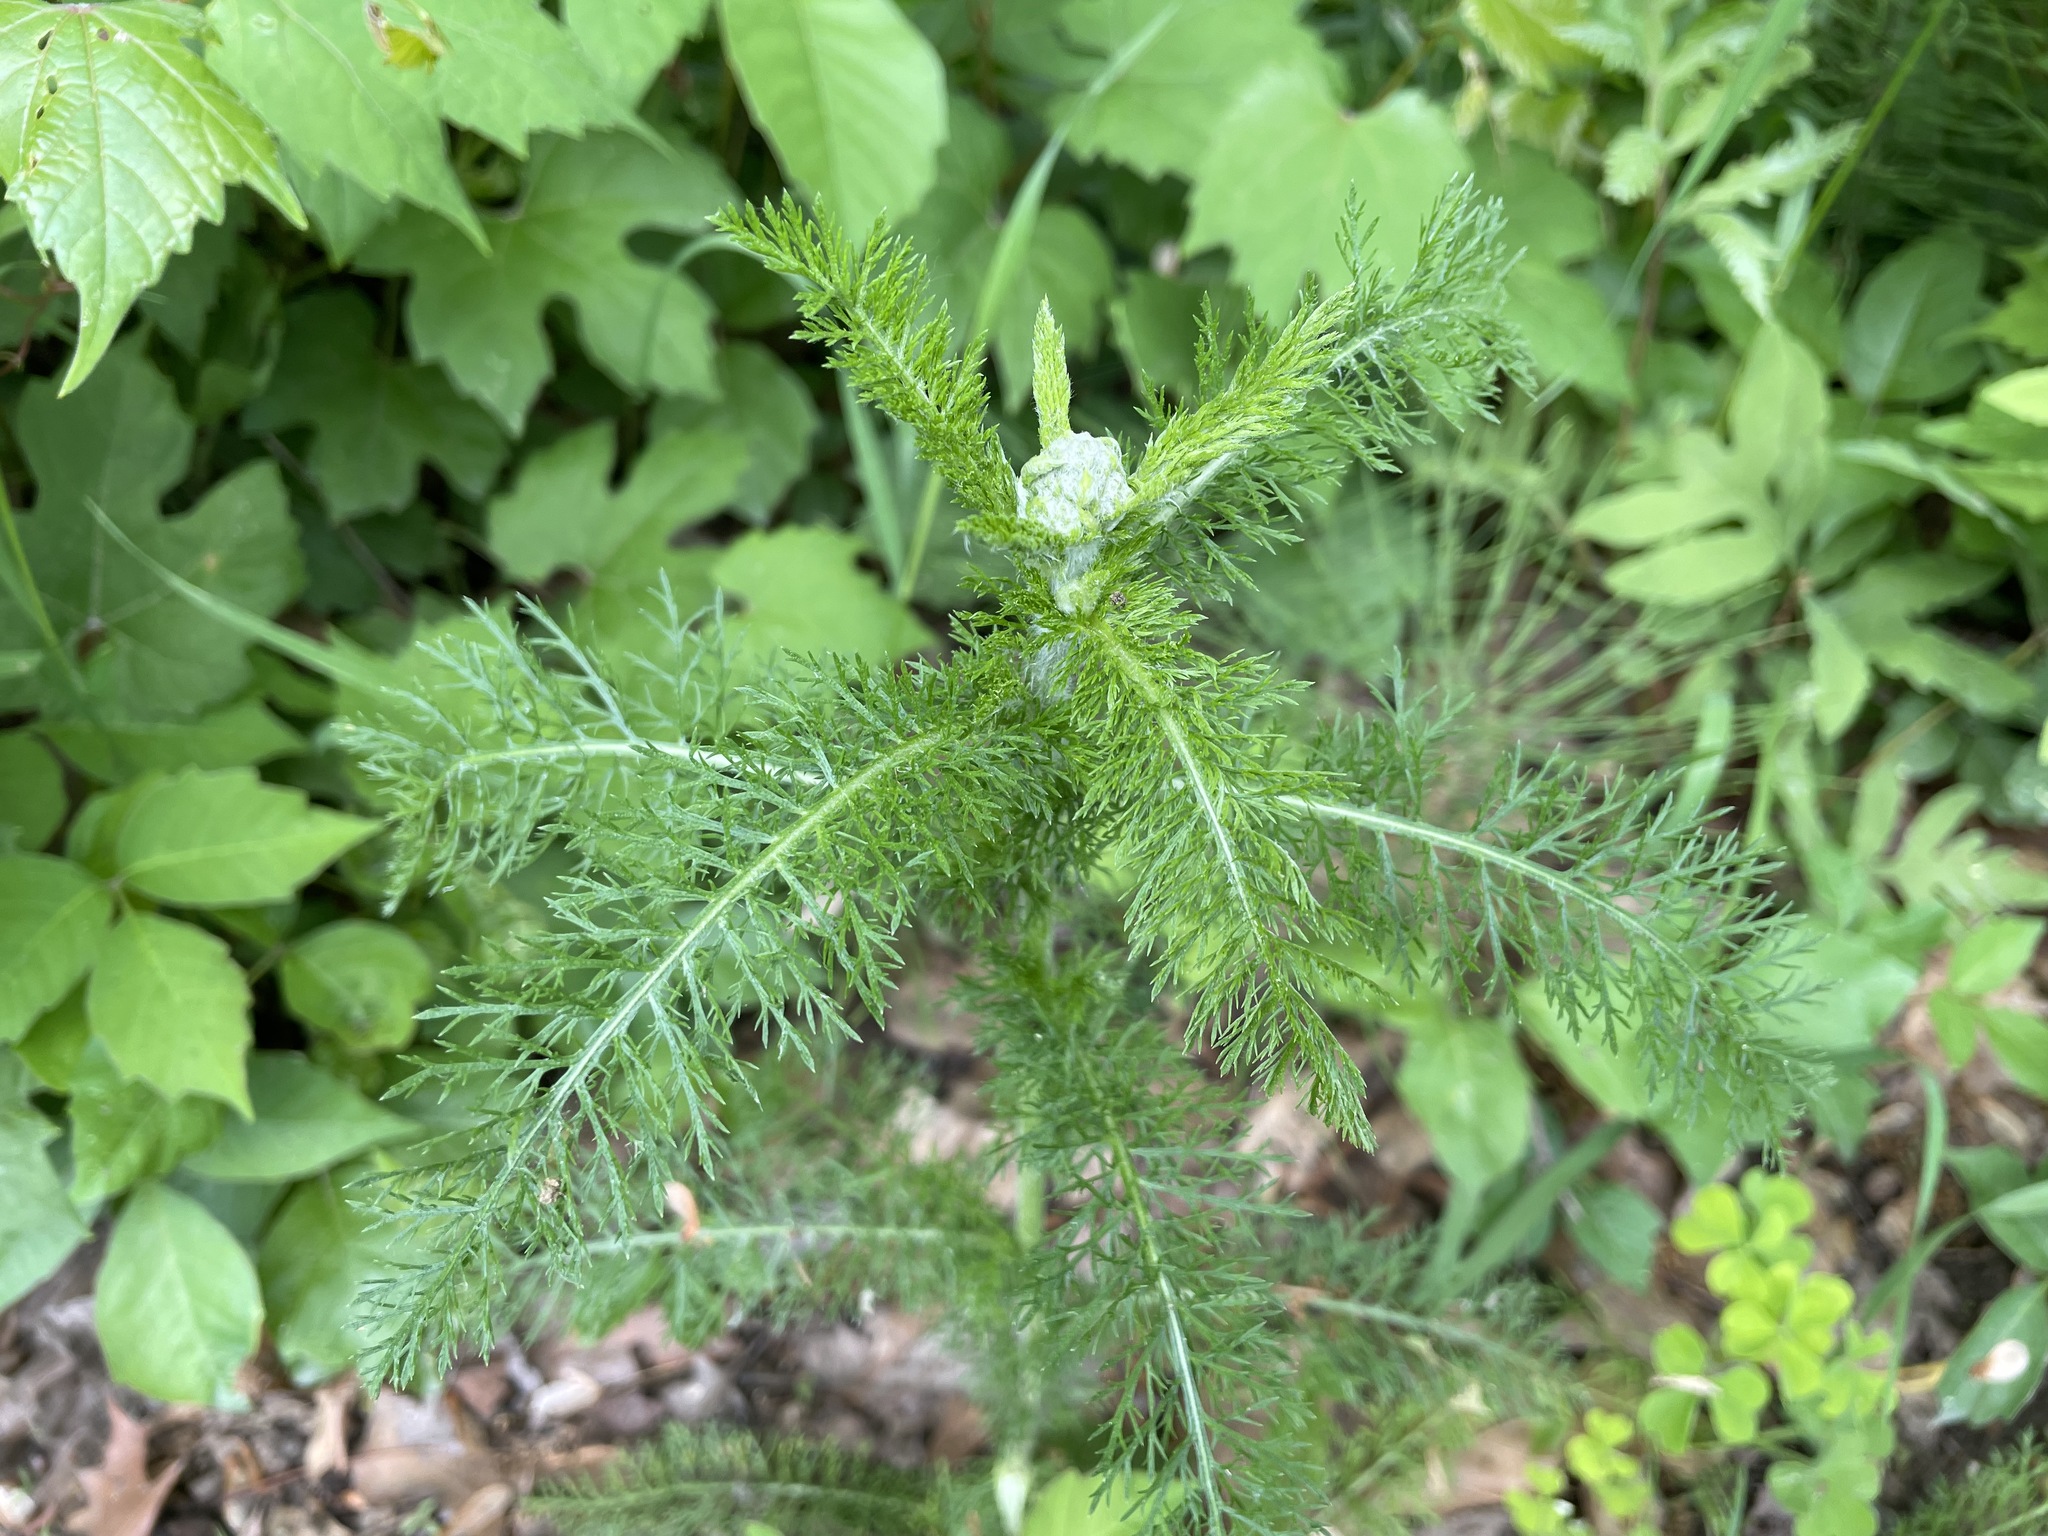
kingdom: Plantae
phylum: Tracheophyta
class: Magnoliopsida
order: Asterales
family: Asteraceae
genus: Achillea
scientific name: Achillea millefolium
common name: Yarrow
